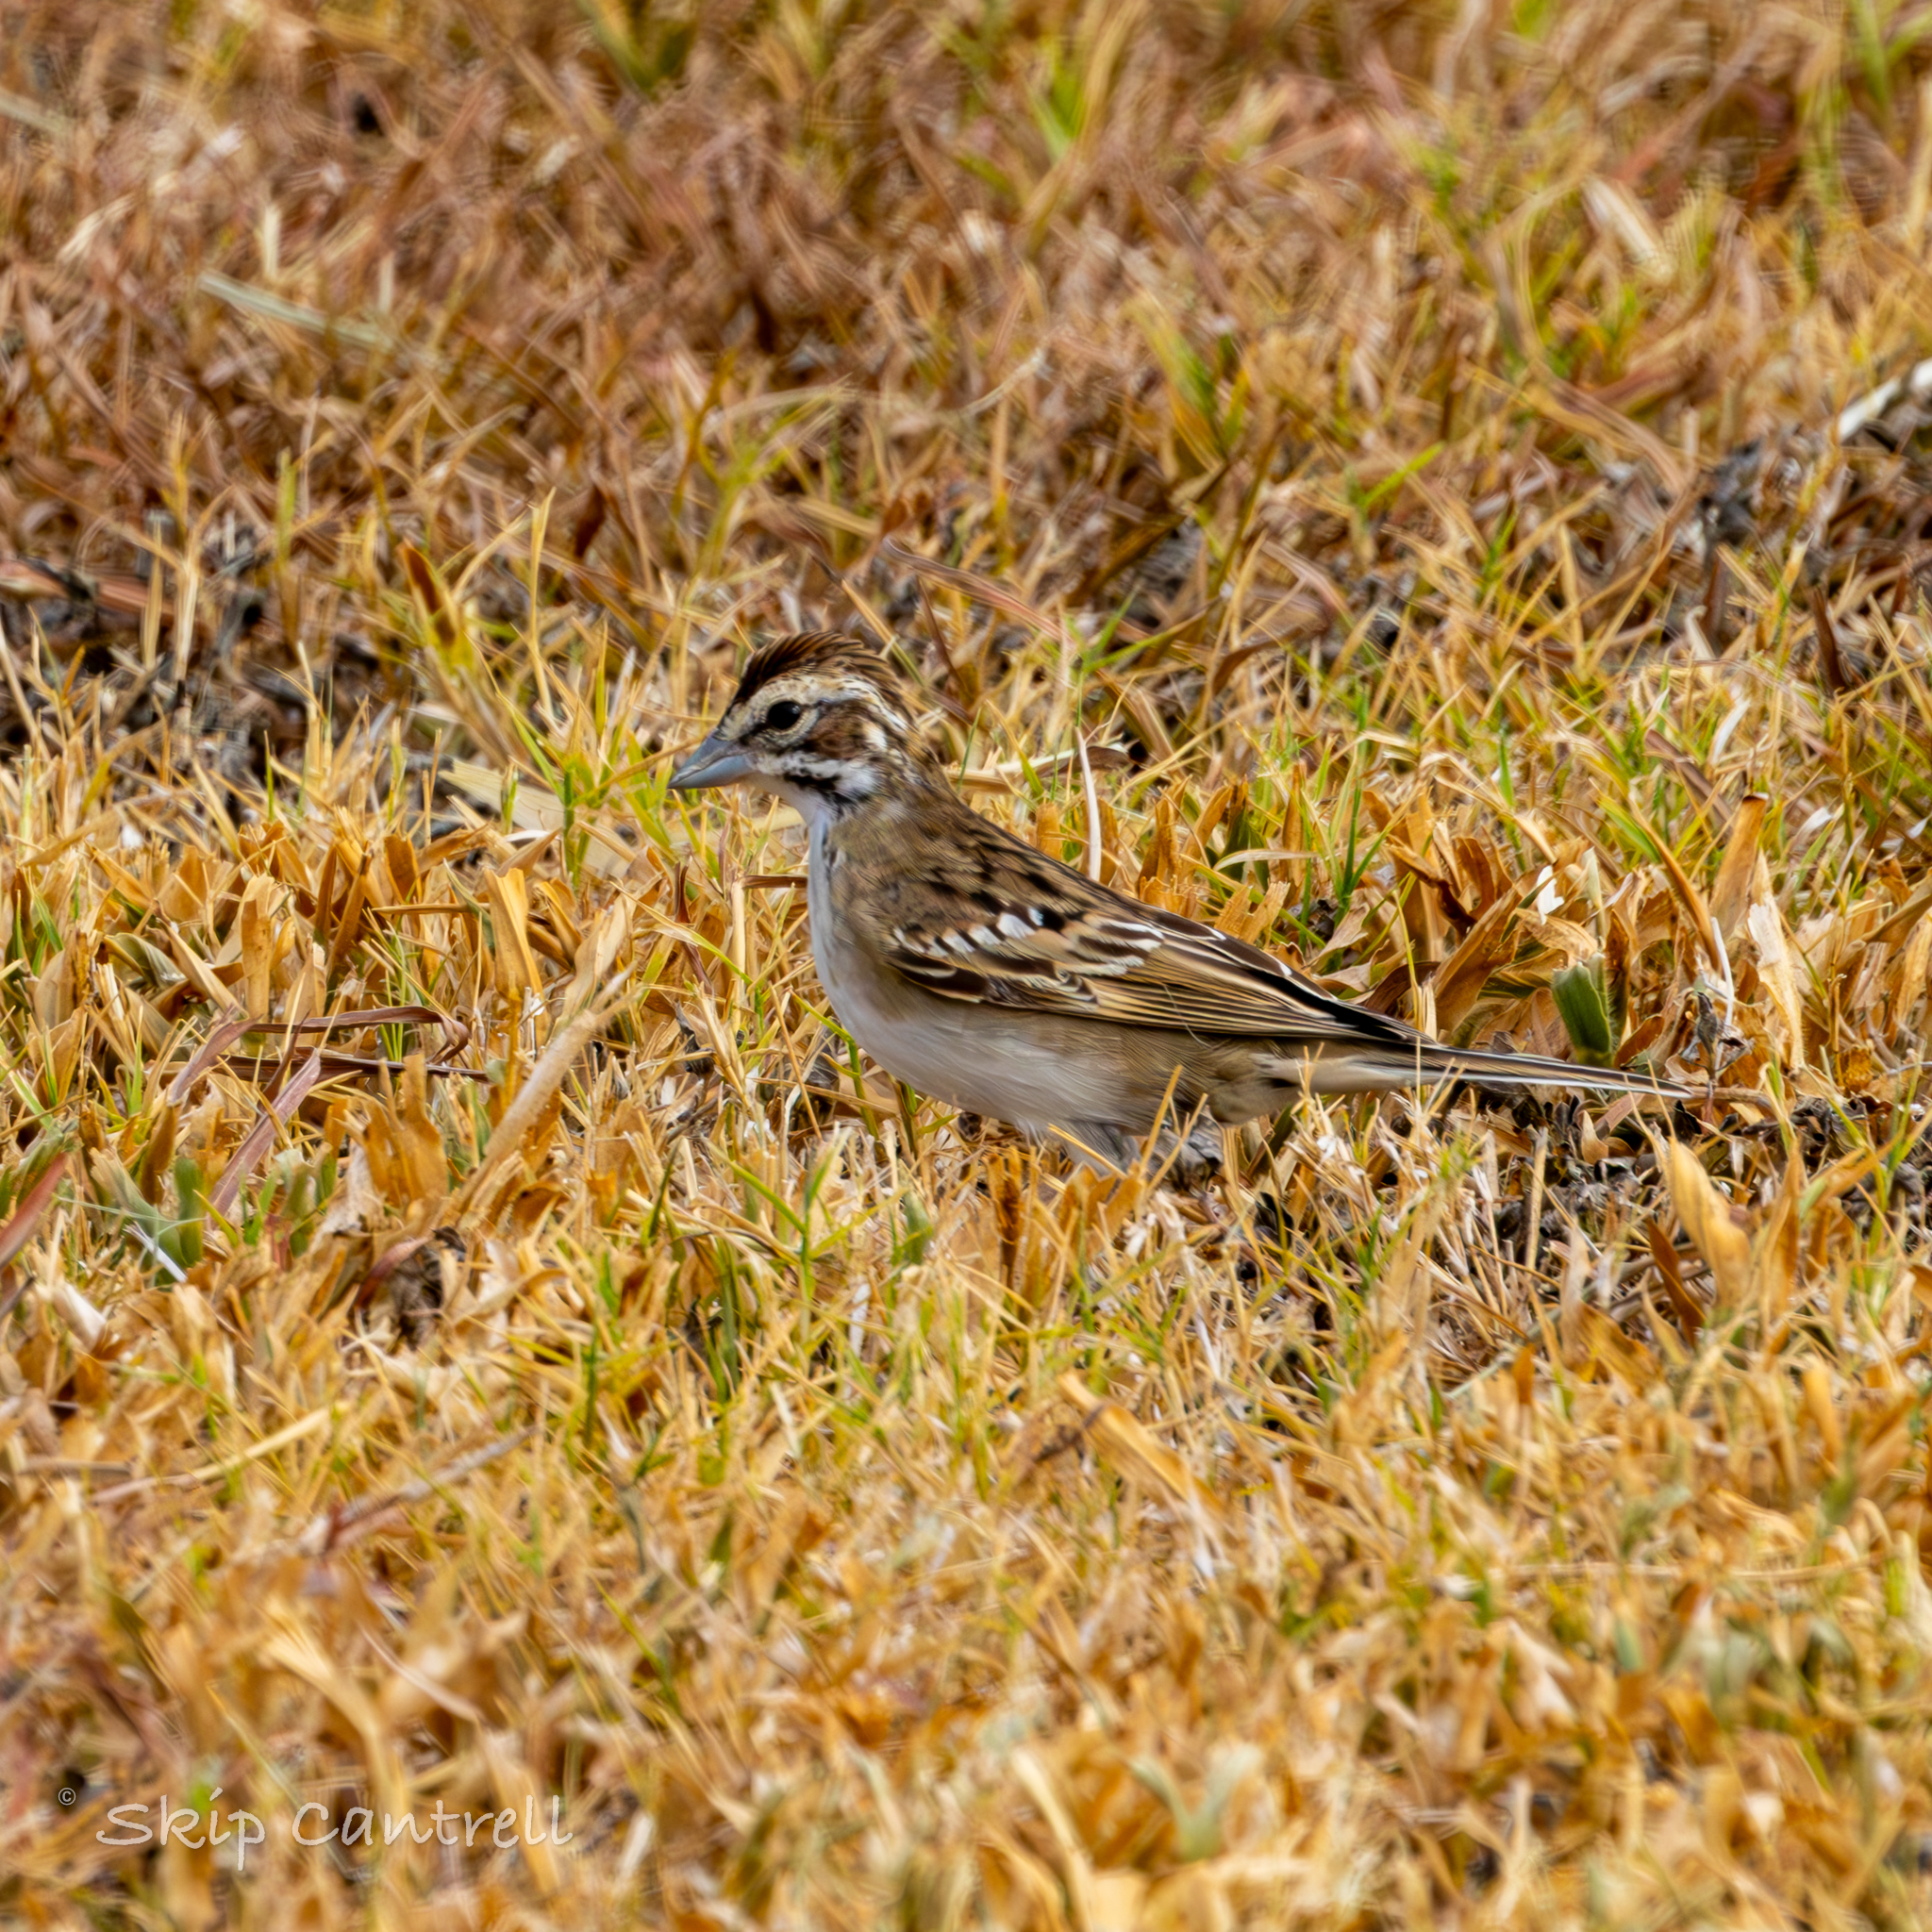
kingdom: Animalia
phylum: Chordata
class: Aves
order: Passeriformes
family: Passerellidae
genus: Chondestes
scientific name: Chondestes grammacus
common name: Lark sparrow
